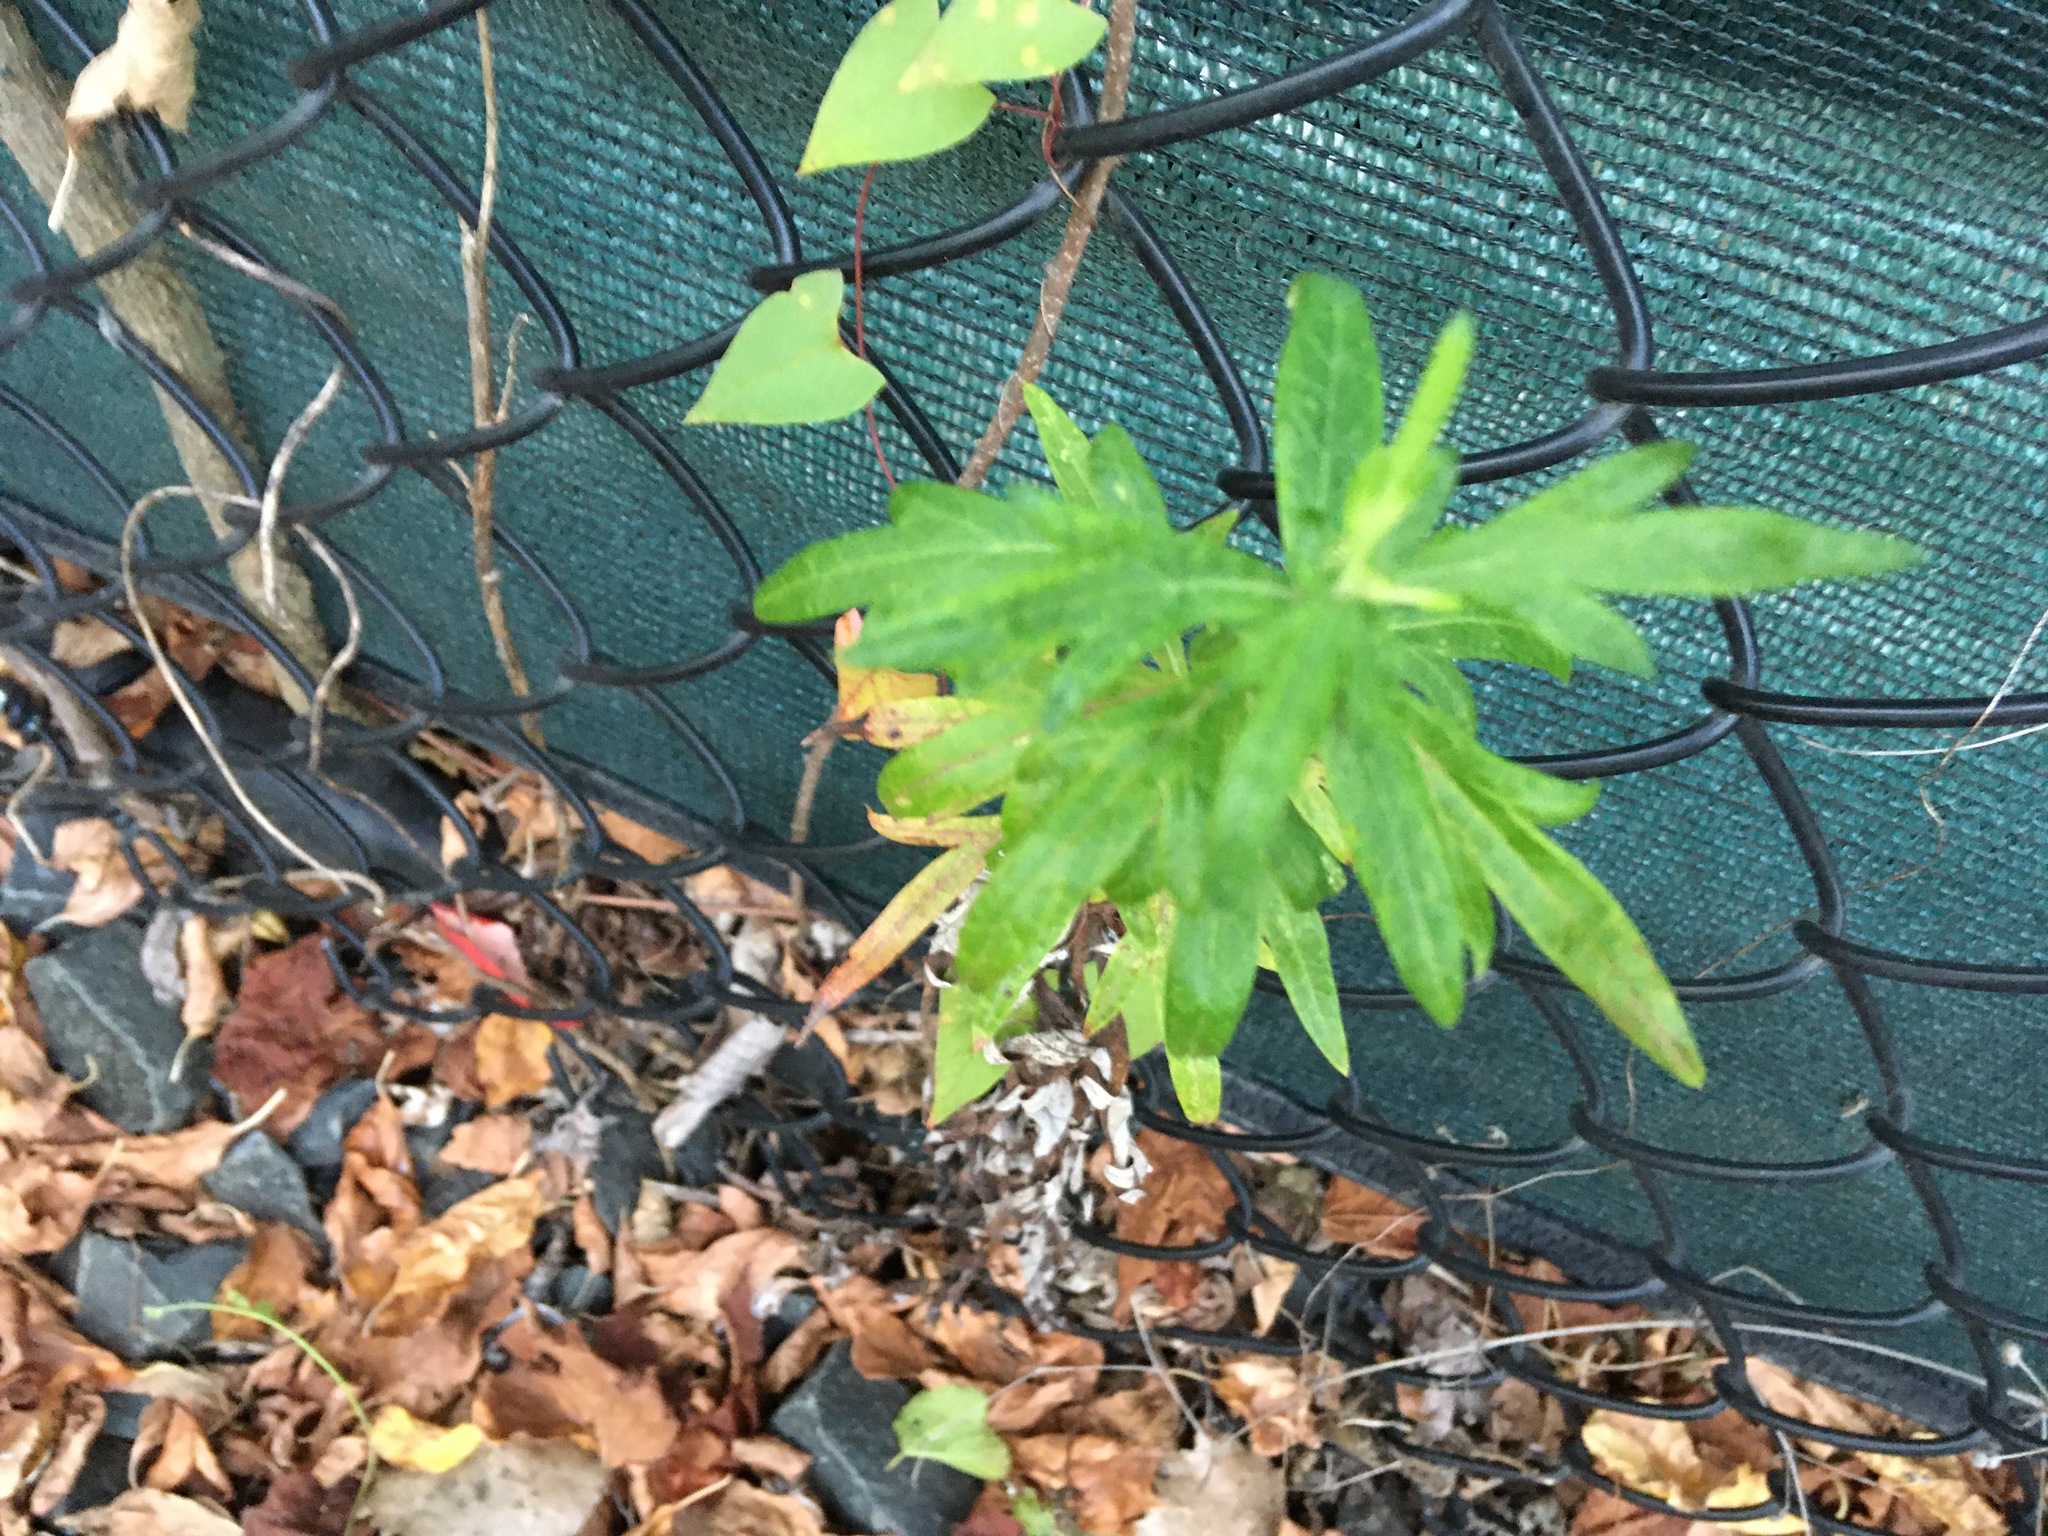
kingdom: Plantae
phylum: Tracheophyta
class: Magnoliopsida
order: Asterales
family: Asteraceae
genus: Artemisia
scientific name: Artemisia vulgaris
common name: Mugwort
